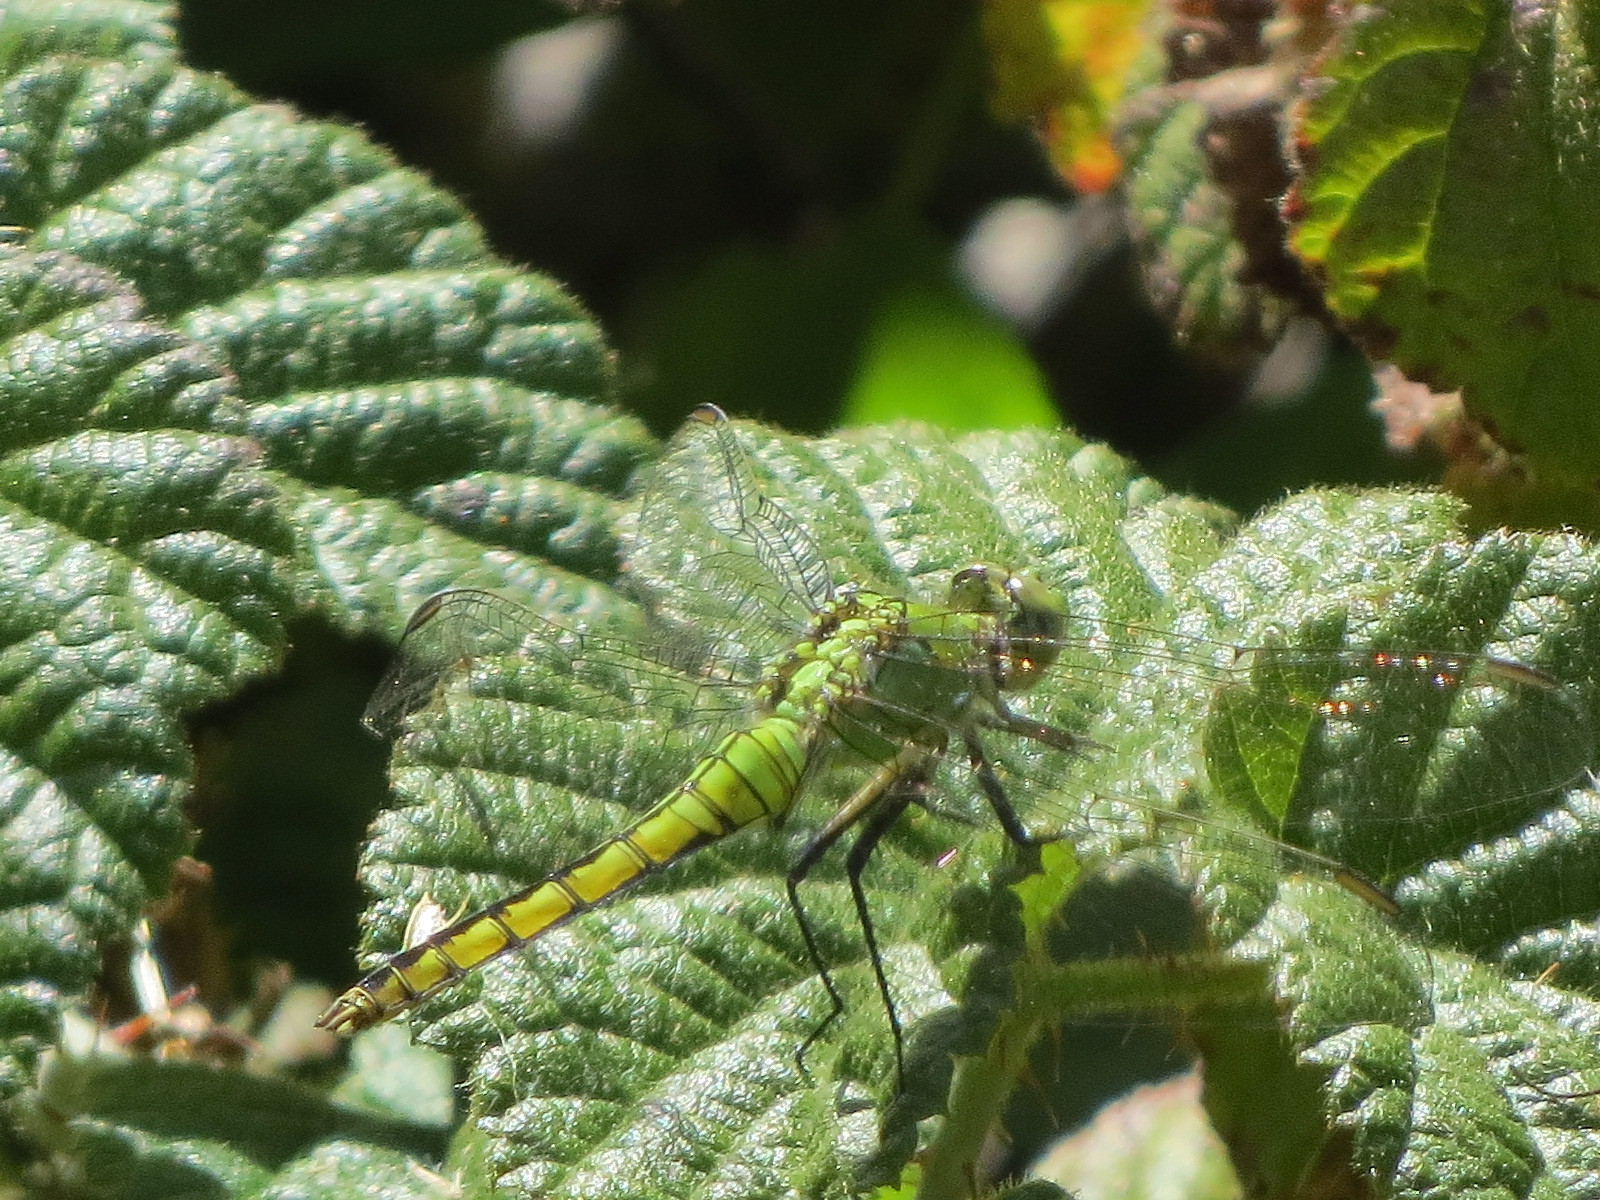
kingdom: Animalia
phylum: Arthropoda
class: Insecta
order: Odonata
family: Libellulidae
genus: Erythemis
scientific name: Erythemis collocata
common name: Western pondhawk
